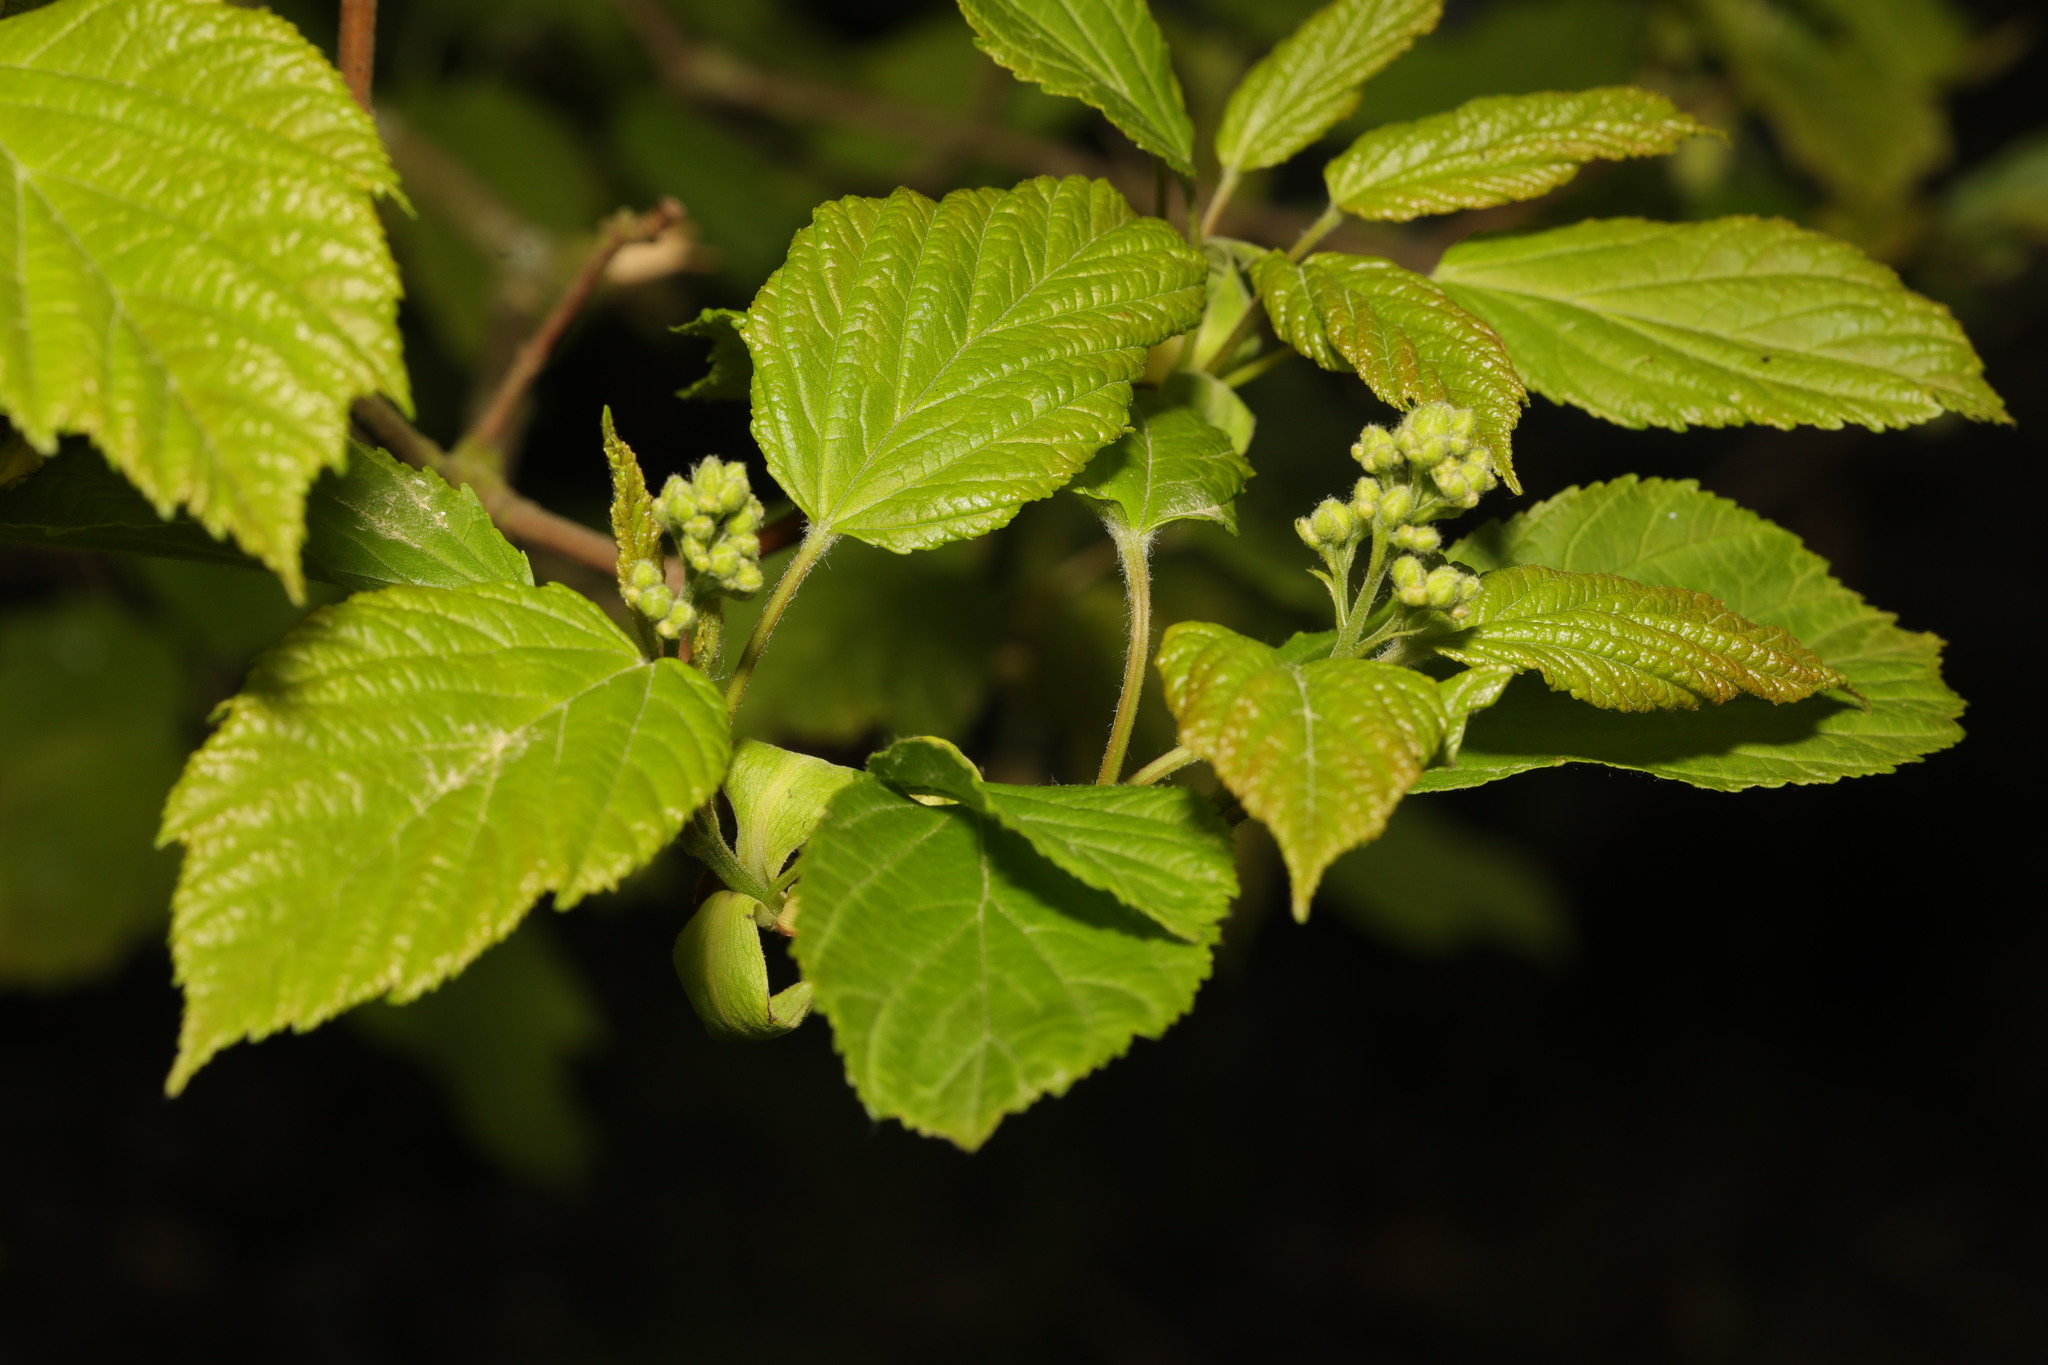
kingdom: Plantae
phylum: Tracheophyta
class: Magnoliopsida
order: Sapindales
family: Sapindaceae
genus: Acer
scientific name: Acer tataricum
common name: Tartar maple
